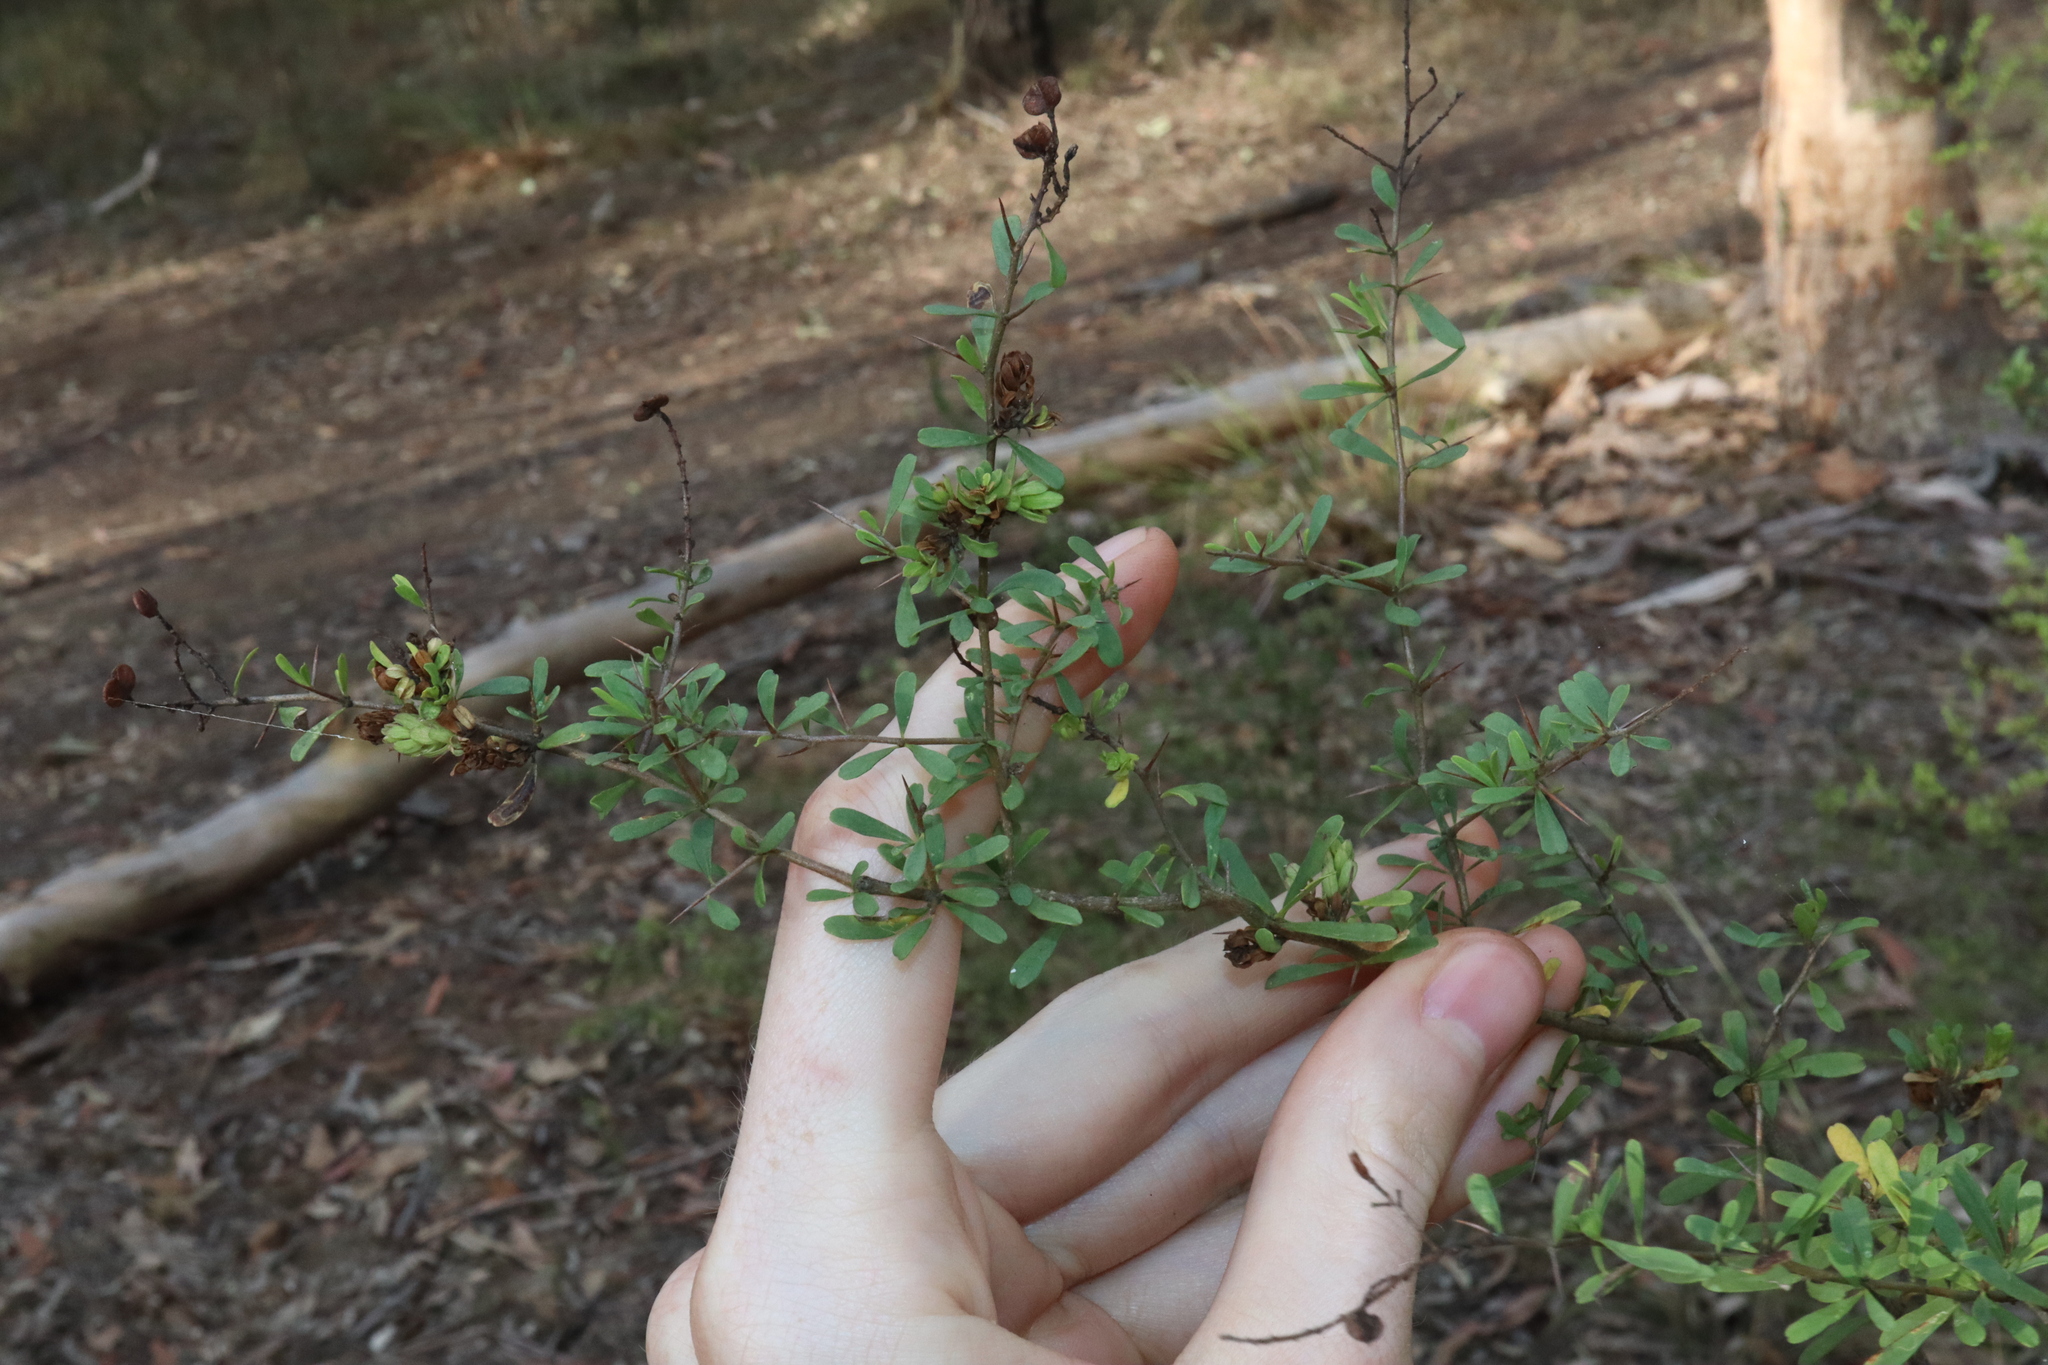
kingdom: Plantae
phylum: Tracheophyta
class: Magnoliopsida
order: Apiales
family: Pittosporaceae
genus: Bursaria
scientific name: Bursaria spinosa
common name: Australian blackthorn
